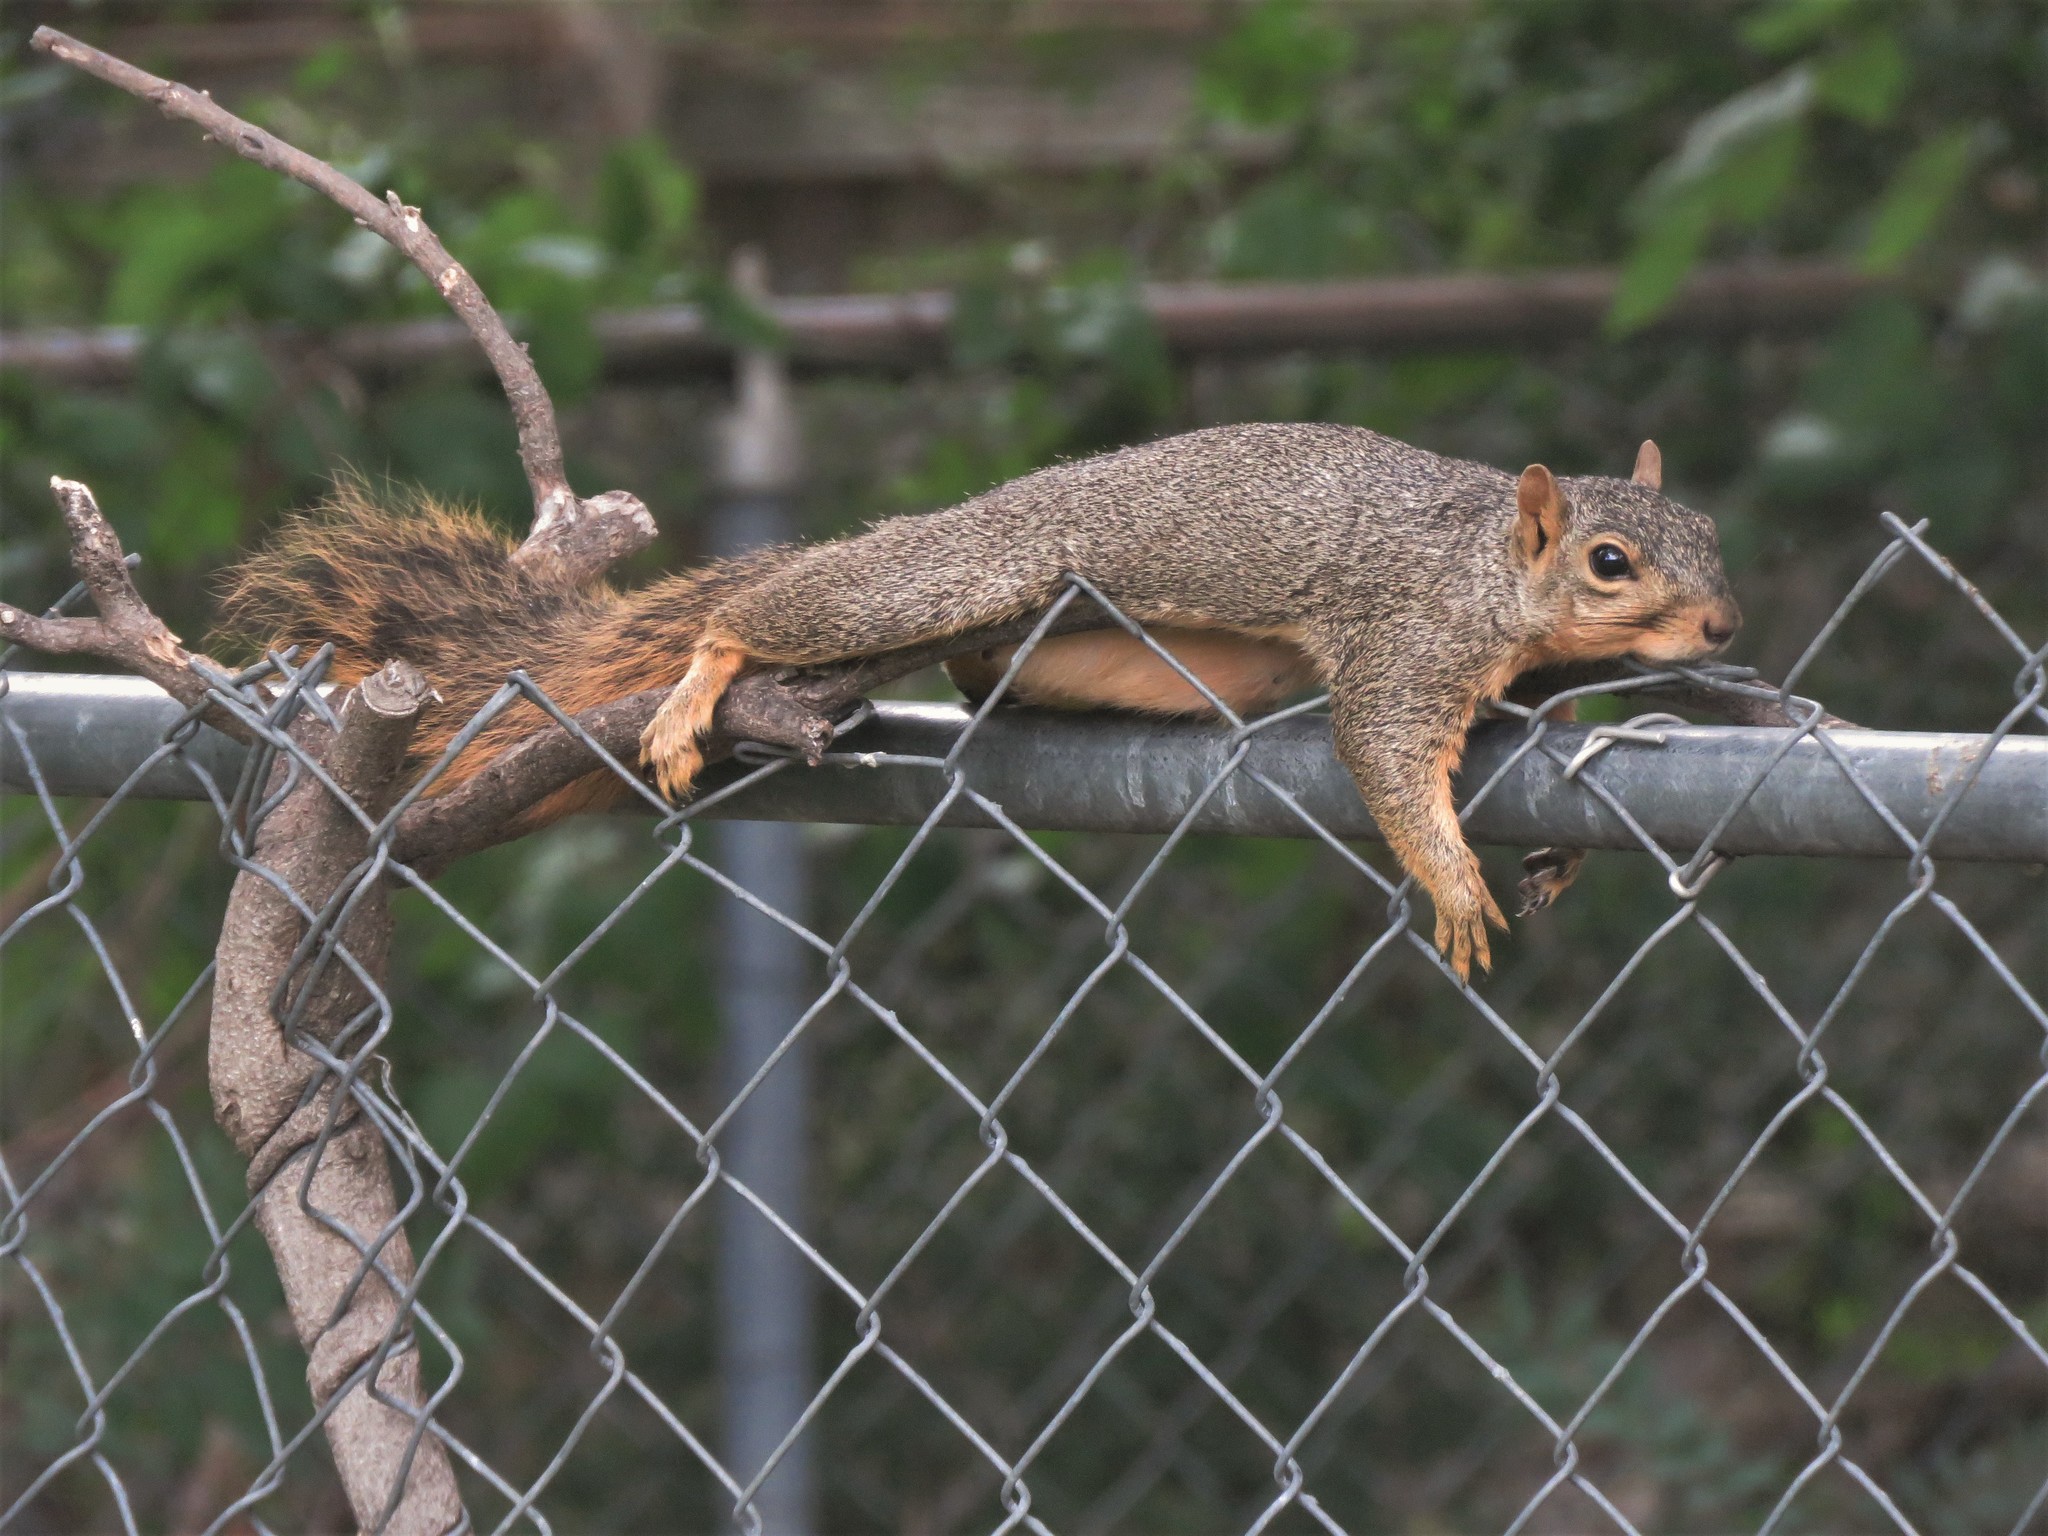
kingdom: Animalia
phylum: Chordata
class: Mammalia
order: Rodentia
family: Sciuridae
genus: Sciurus
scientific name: Sciurus niger
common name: Fox squirrel
